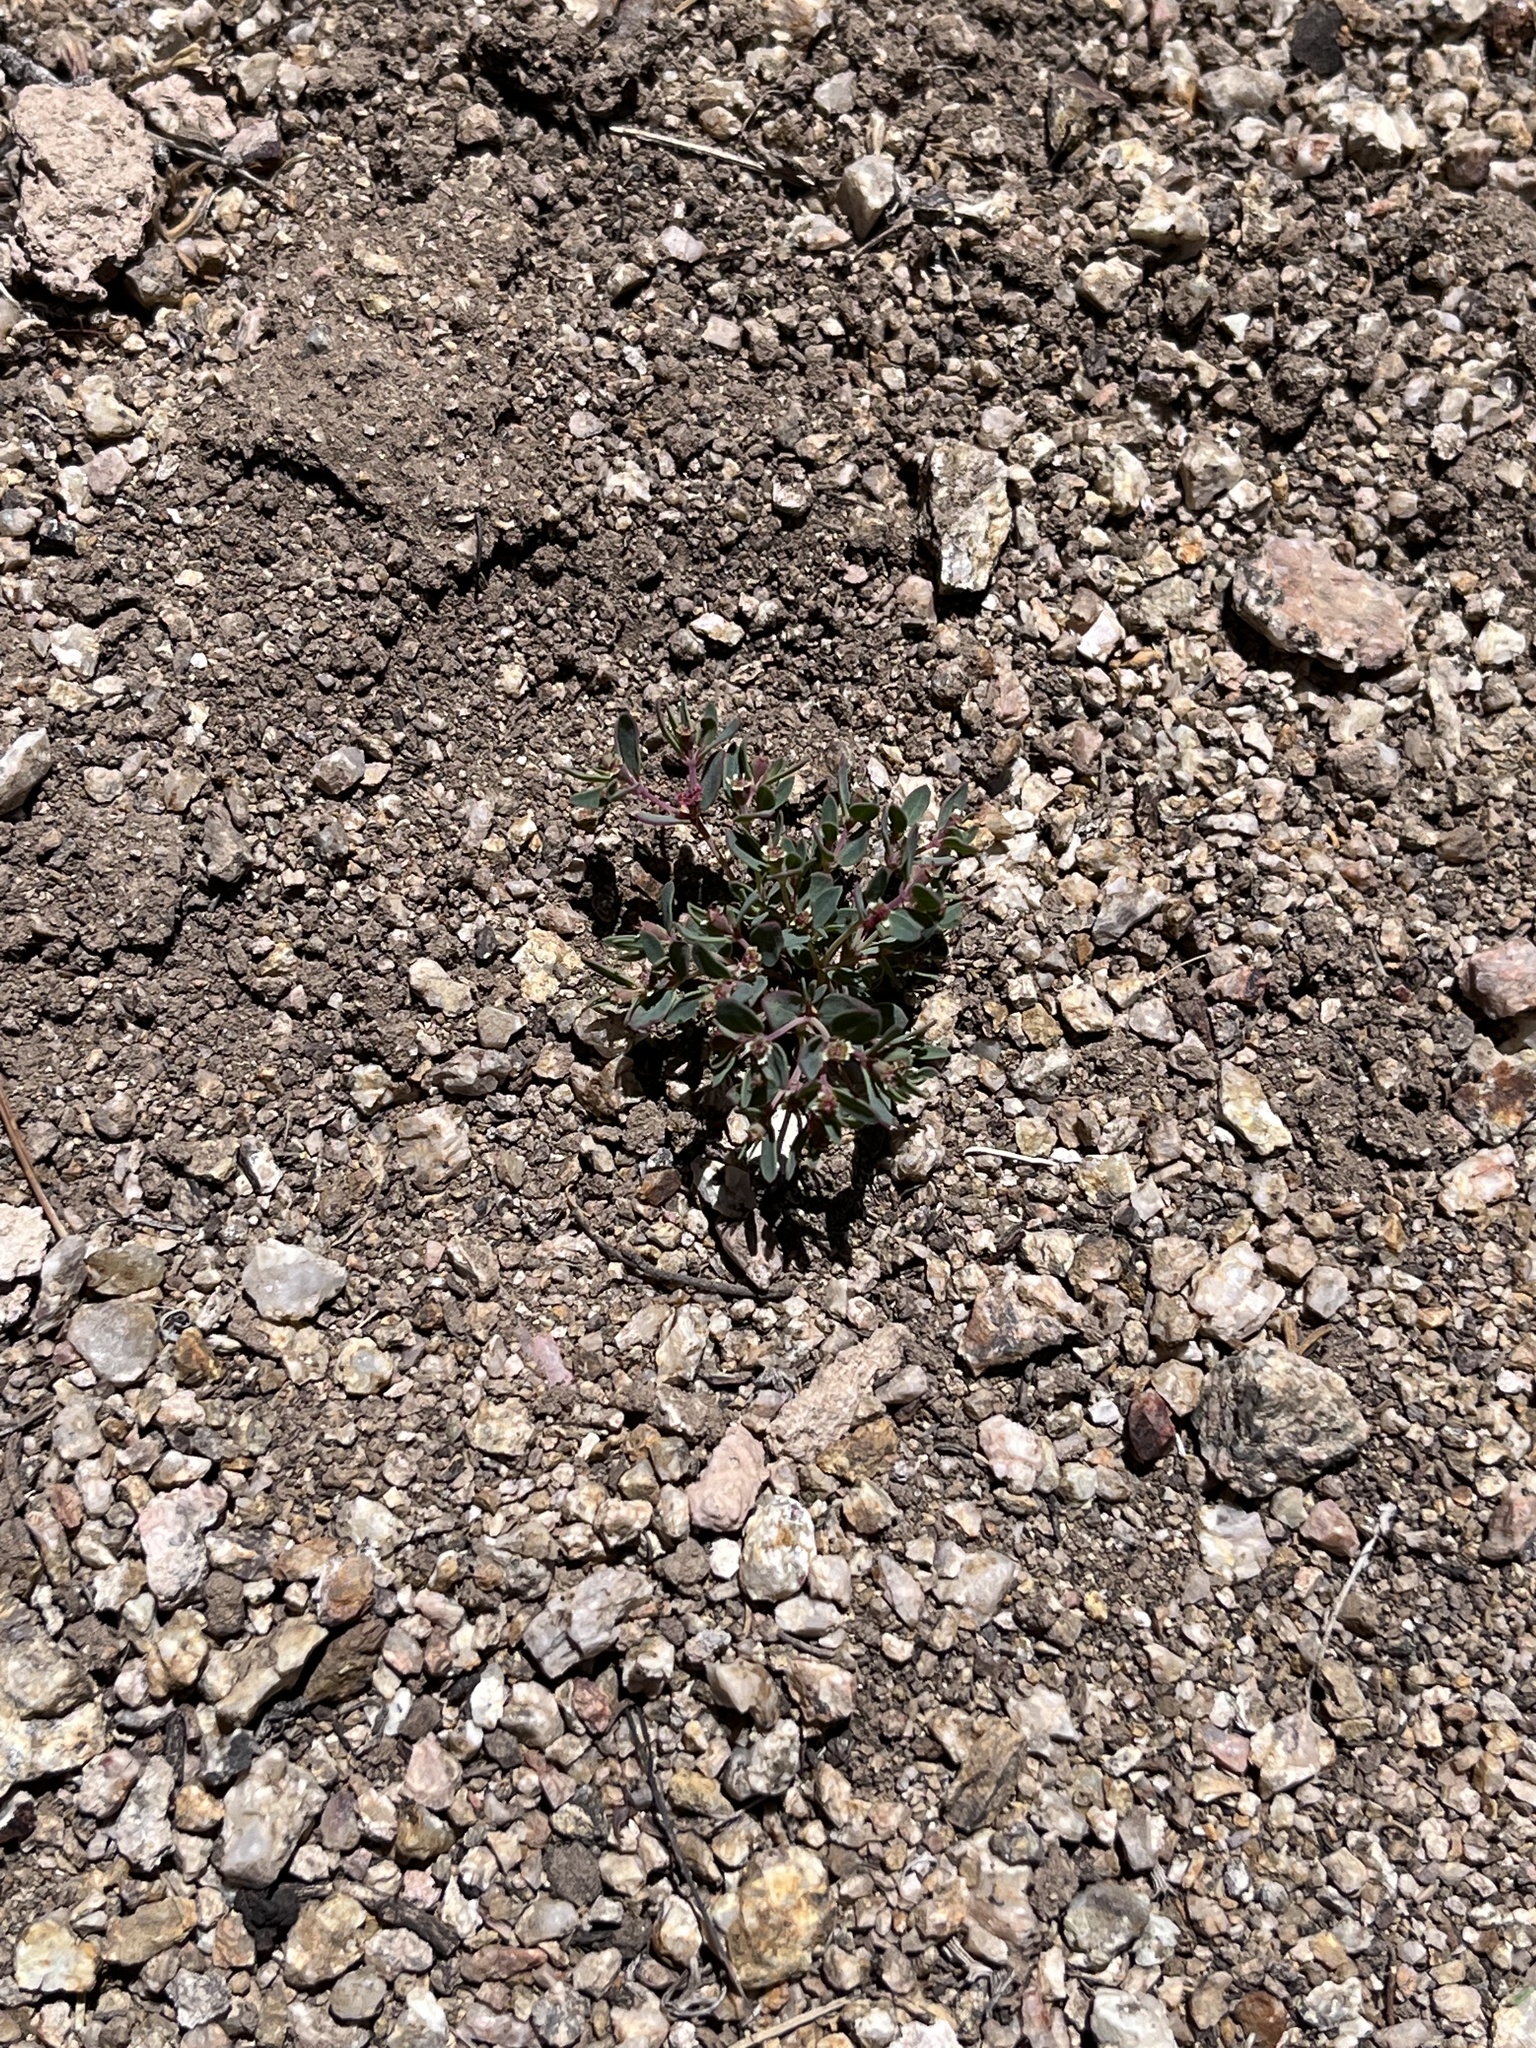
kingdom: Plantae
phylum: Tracheophyta
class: Magnoliopsida
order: Malpighiales
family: Euphorbiaceae
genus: Euphorbia
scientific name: Euphorbia fendleri
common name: Fendler's euphorbia
